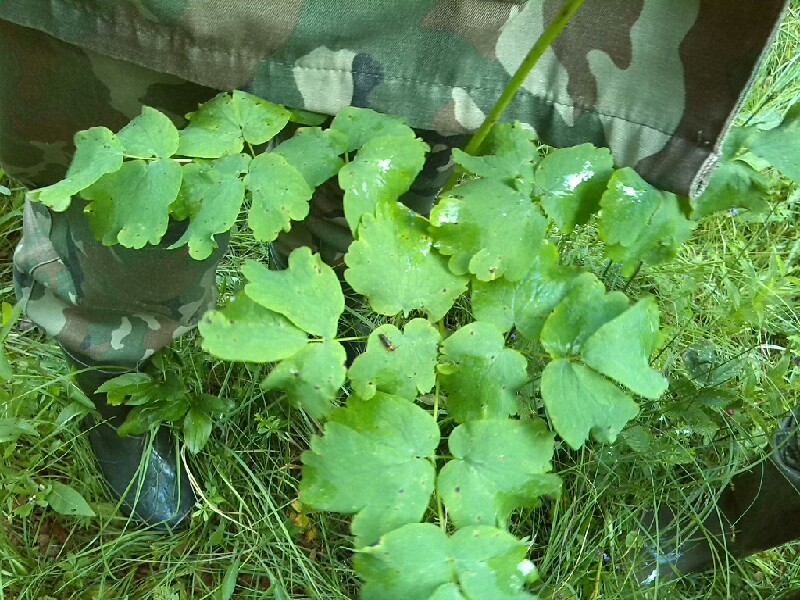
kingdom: Plantae
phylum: Tracheophyta
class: Magnoliopsida
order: Ranunculales
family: Ranunculaceae
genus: Thalictrum
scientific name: Thalictrum aquilegiifolium
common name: French meadow-rue
